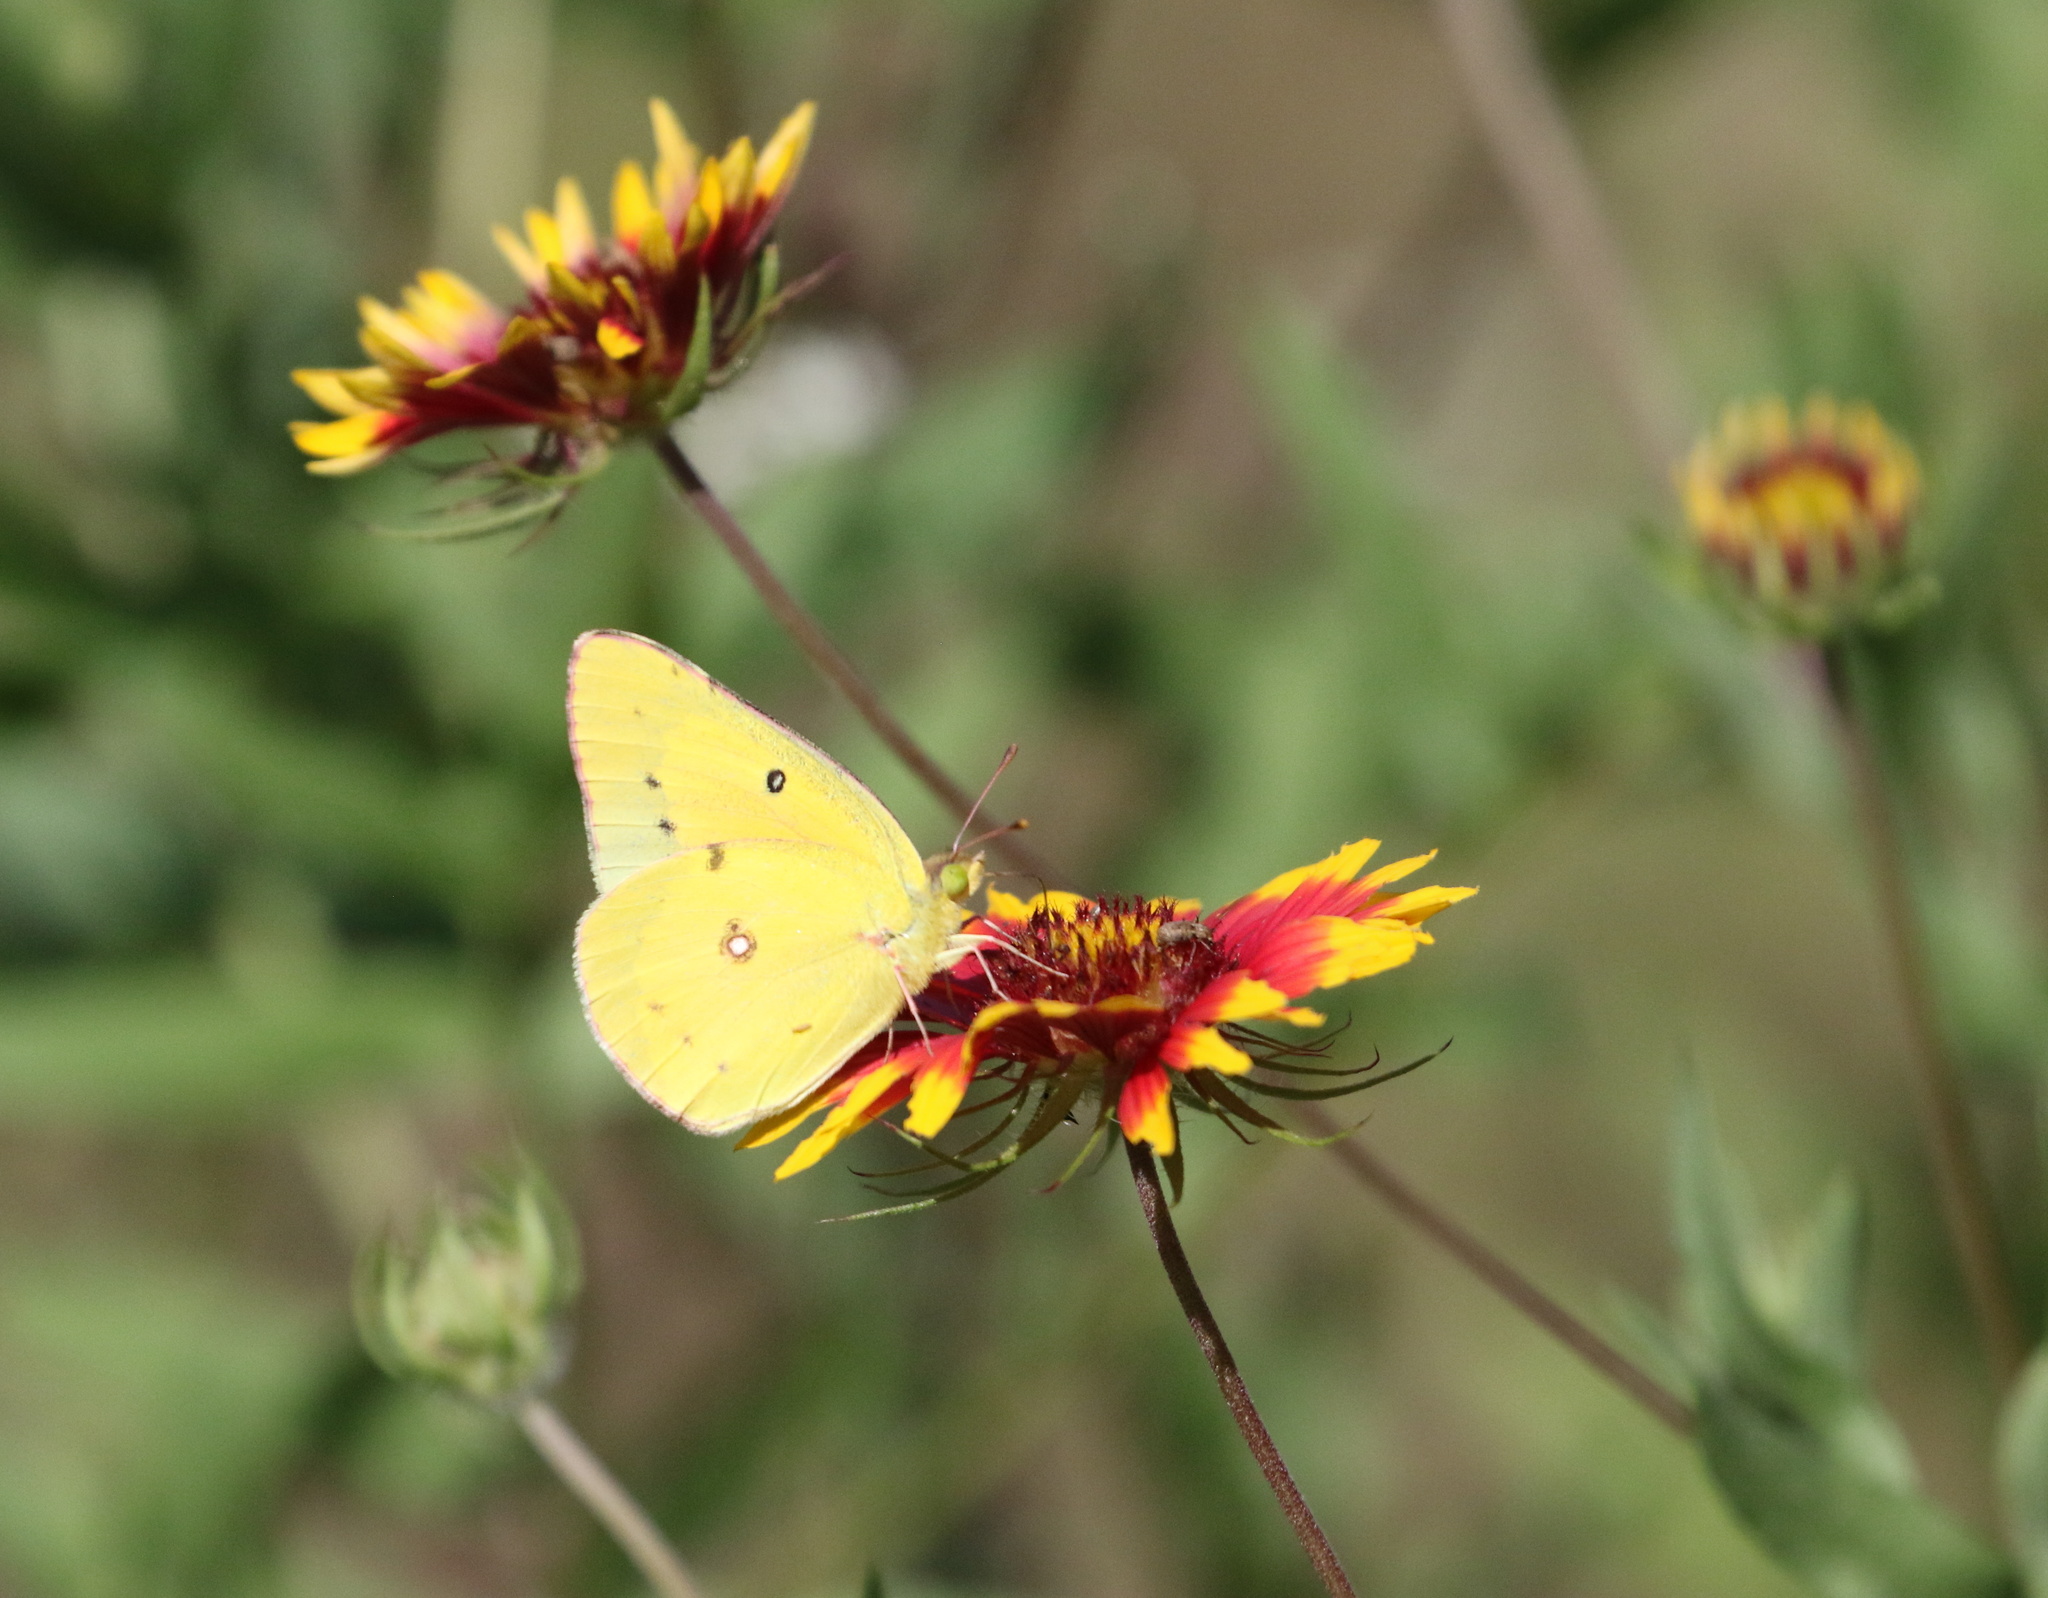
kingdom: Animalia
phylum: Arthropoda
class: Insecta
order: Lepidoptera
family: Pieridae
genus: Colias
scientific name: Colias eurytheme
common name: Alfalfa butterfly
